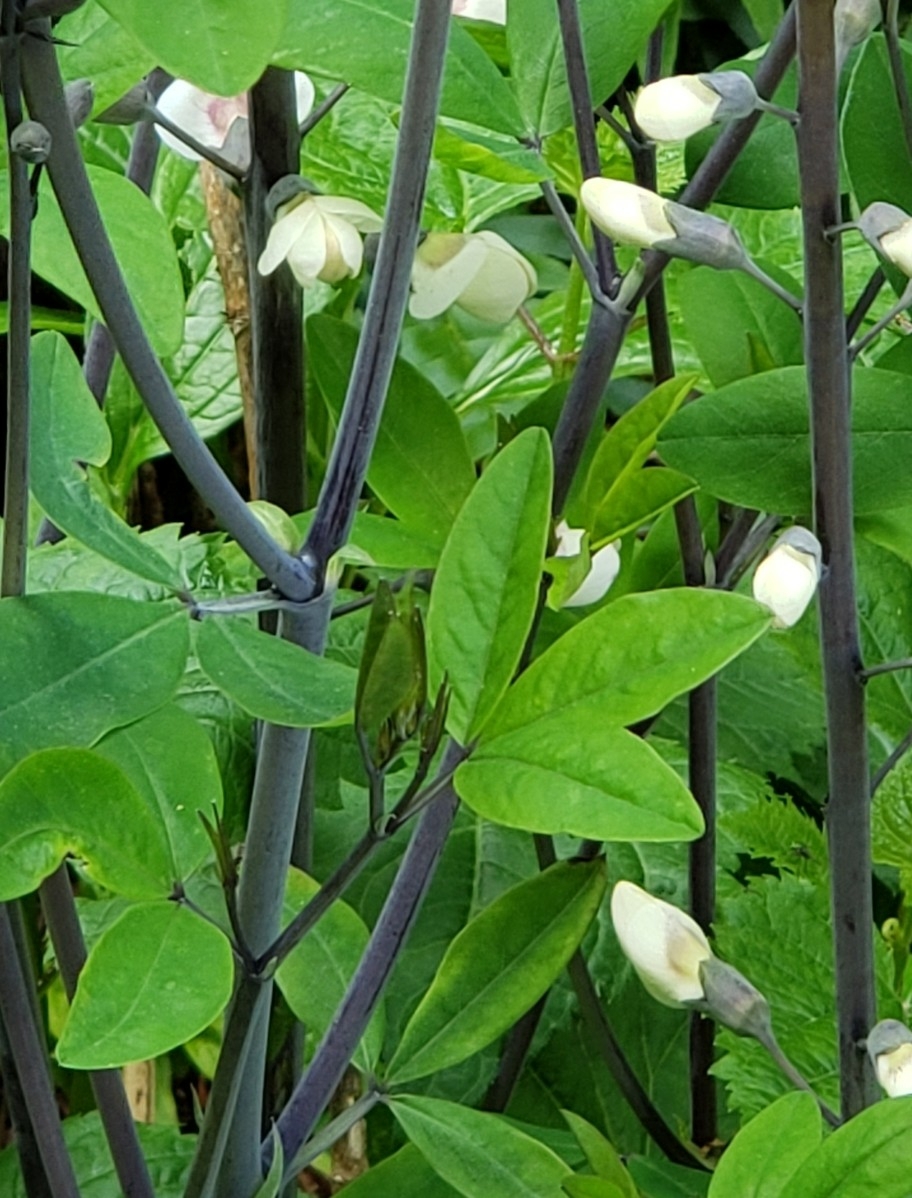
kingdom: Plantae
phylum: Tracheophyta
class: Magnoliopsida
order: Fabales
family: Fabaceae
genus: Baptisia
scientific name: Baptisia alba
